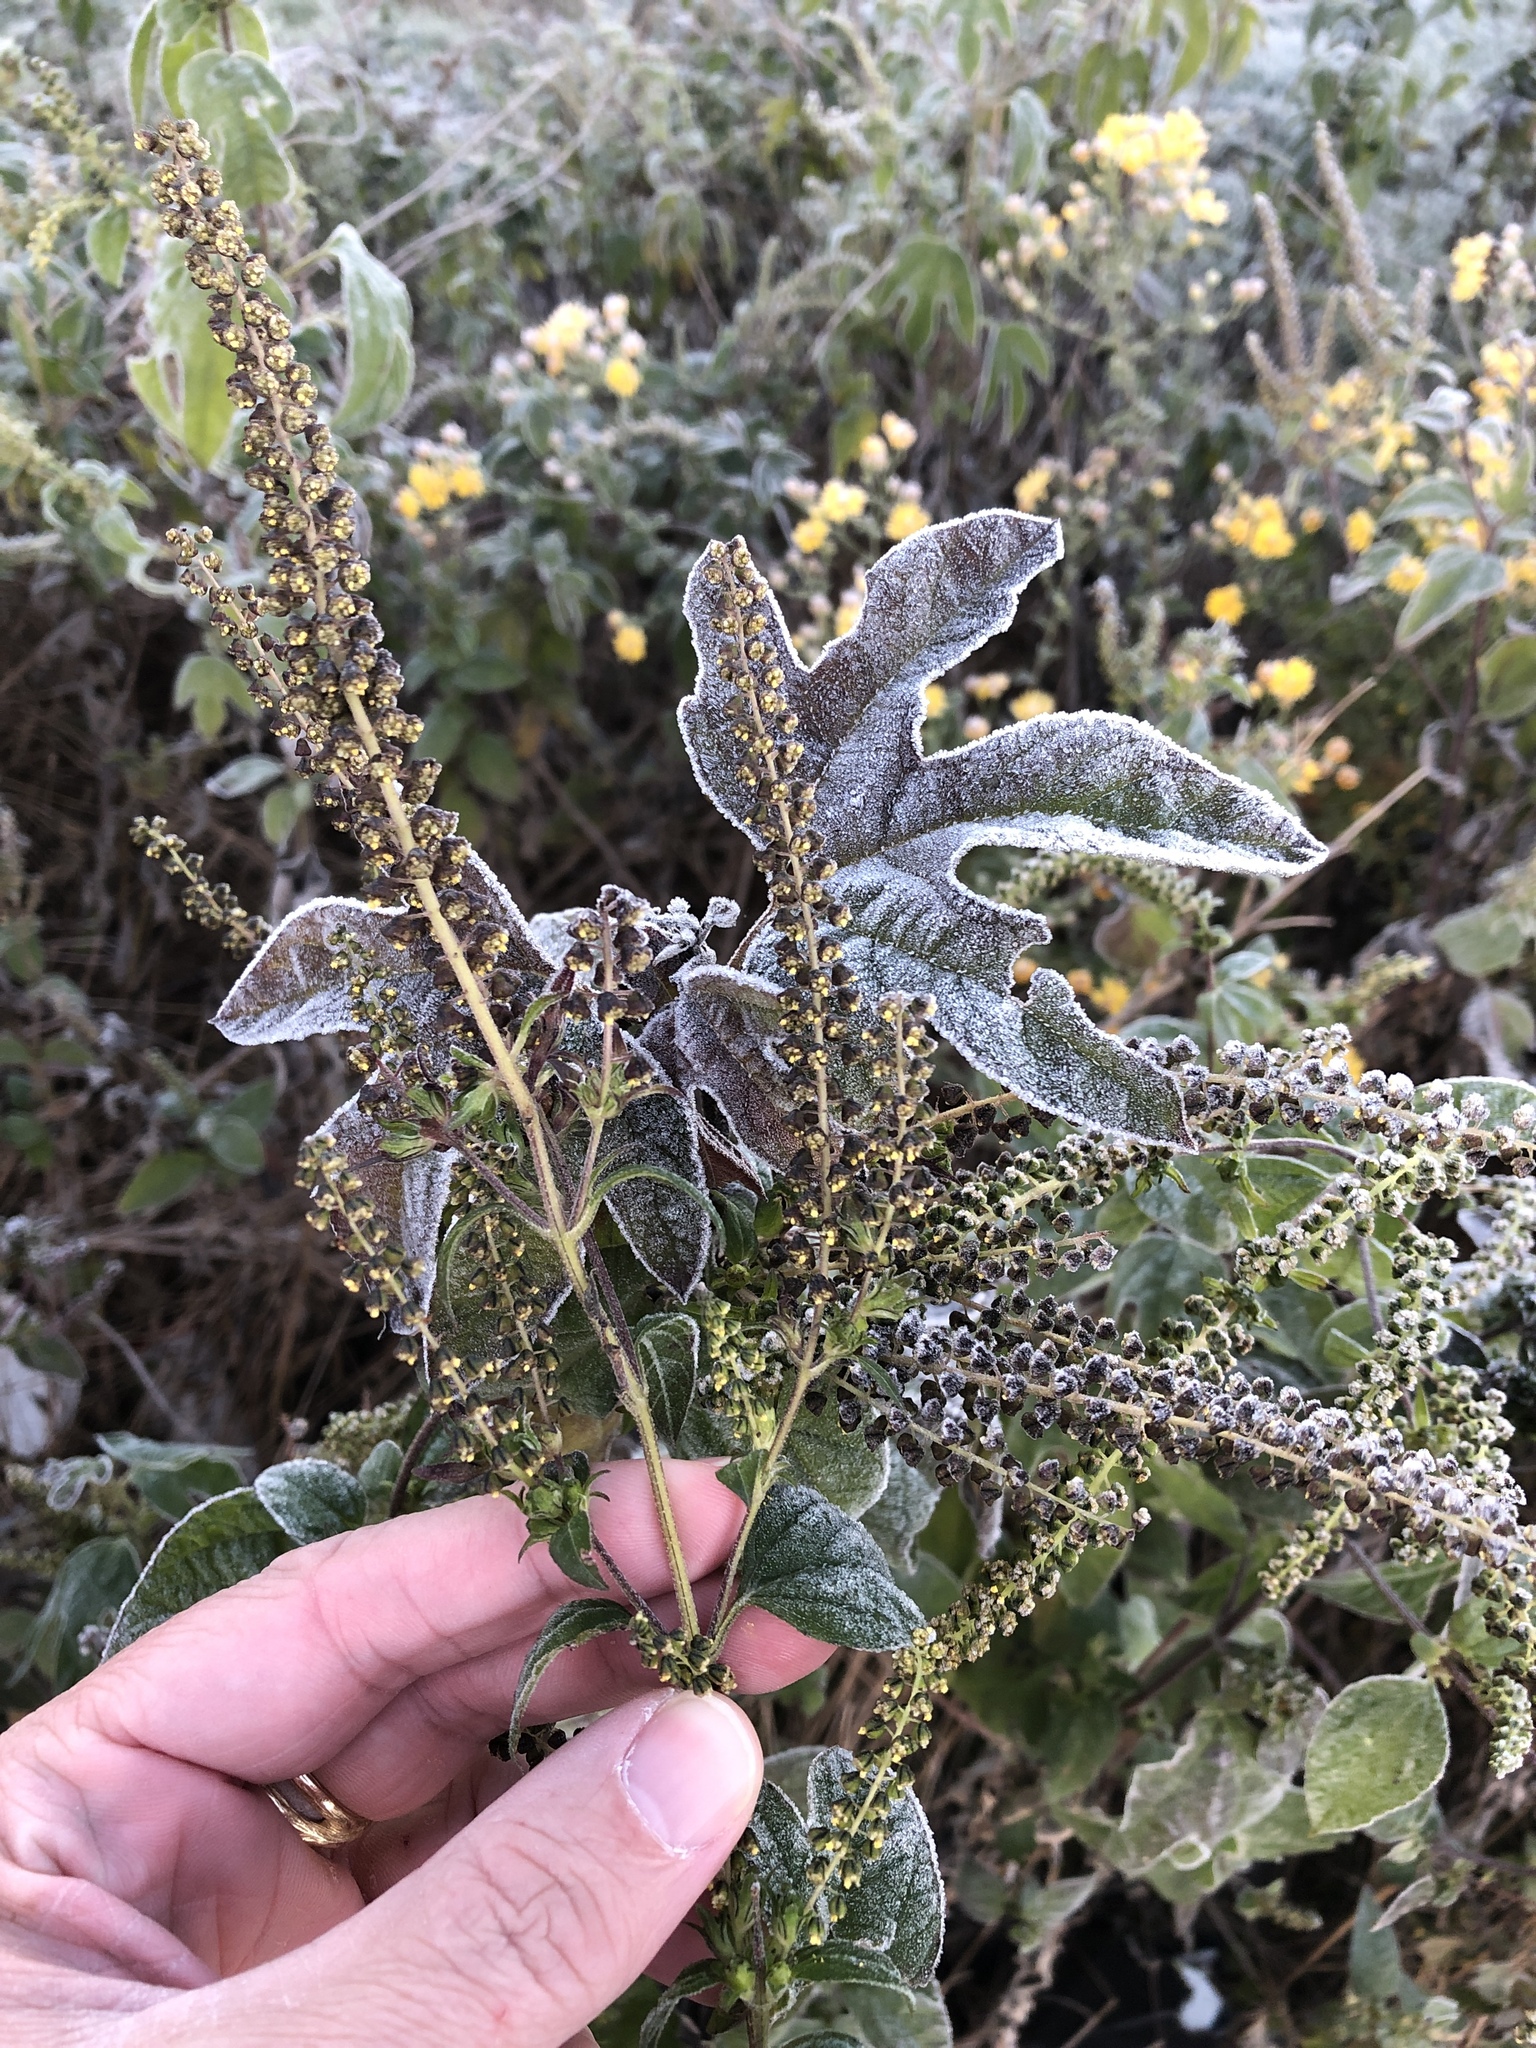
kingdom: Plantae
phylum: Tracheophyta
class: Magnoliopsida
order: Asterales
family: Asteraceae
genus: Ambrosia
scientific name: Ambrosia trifida
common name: Giant ragweed
